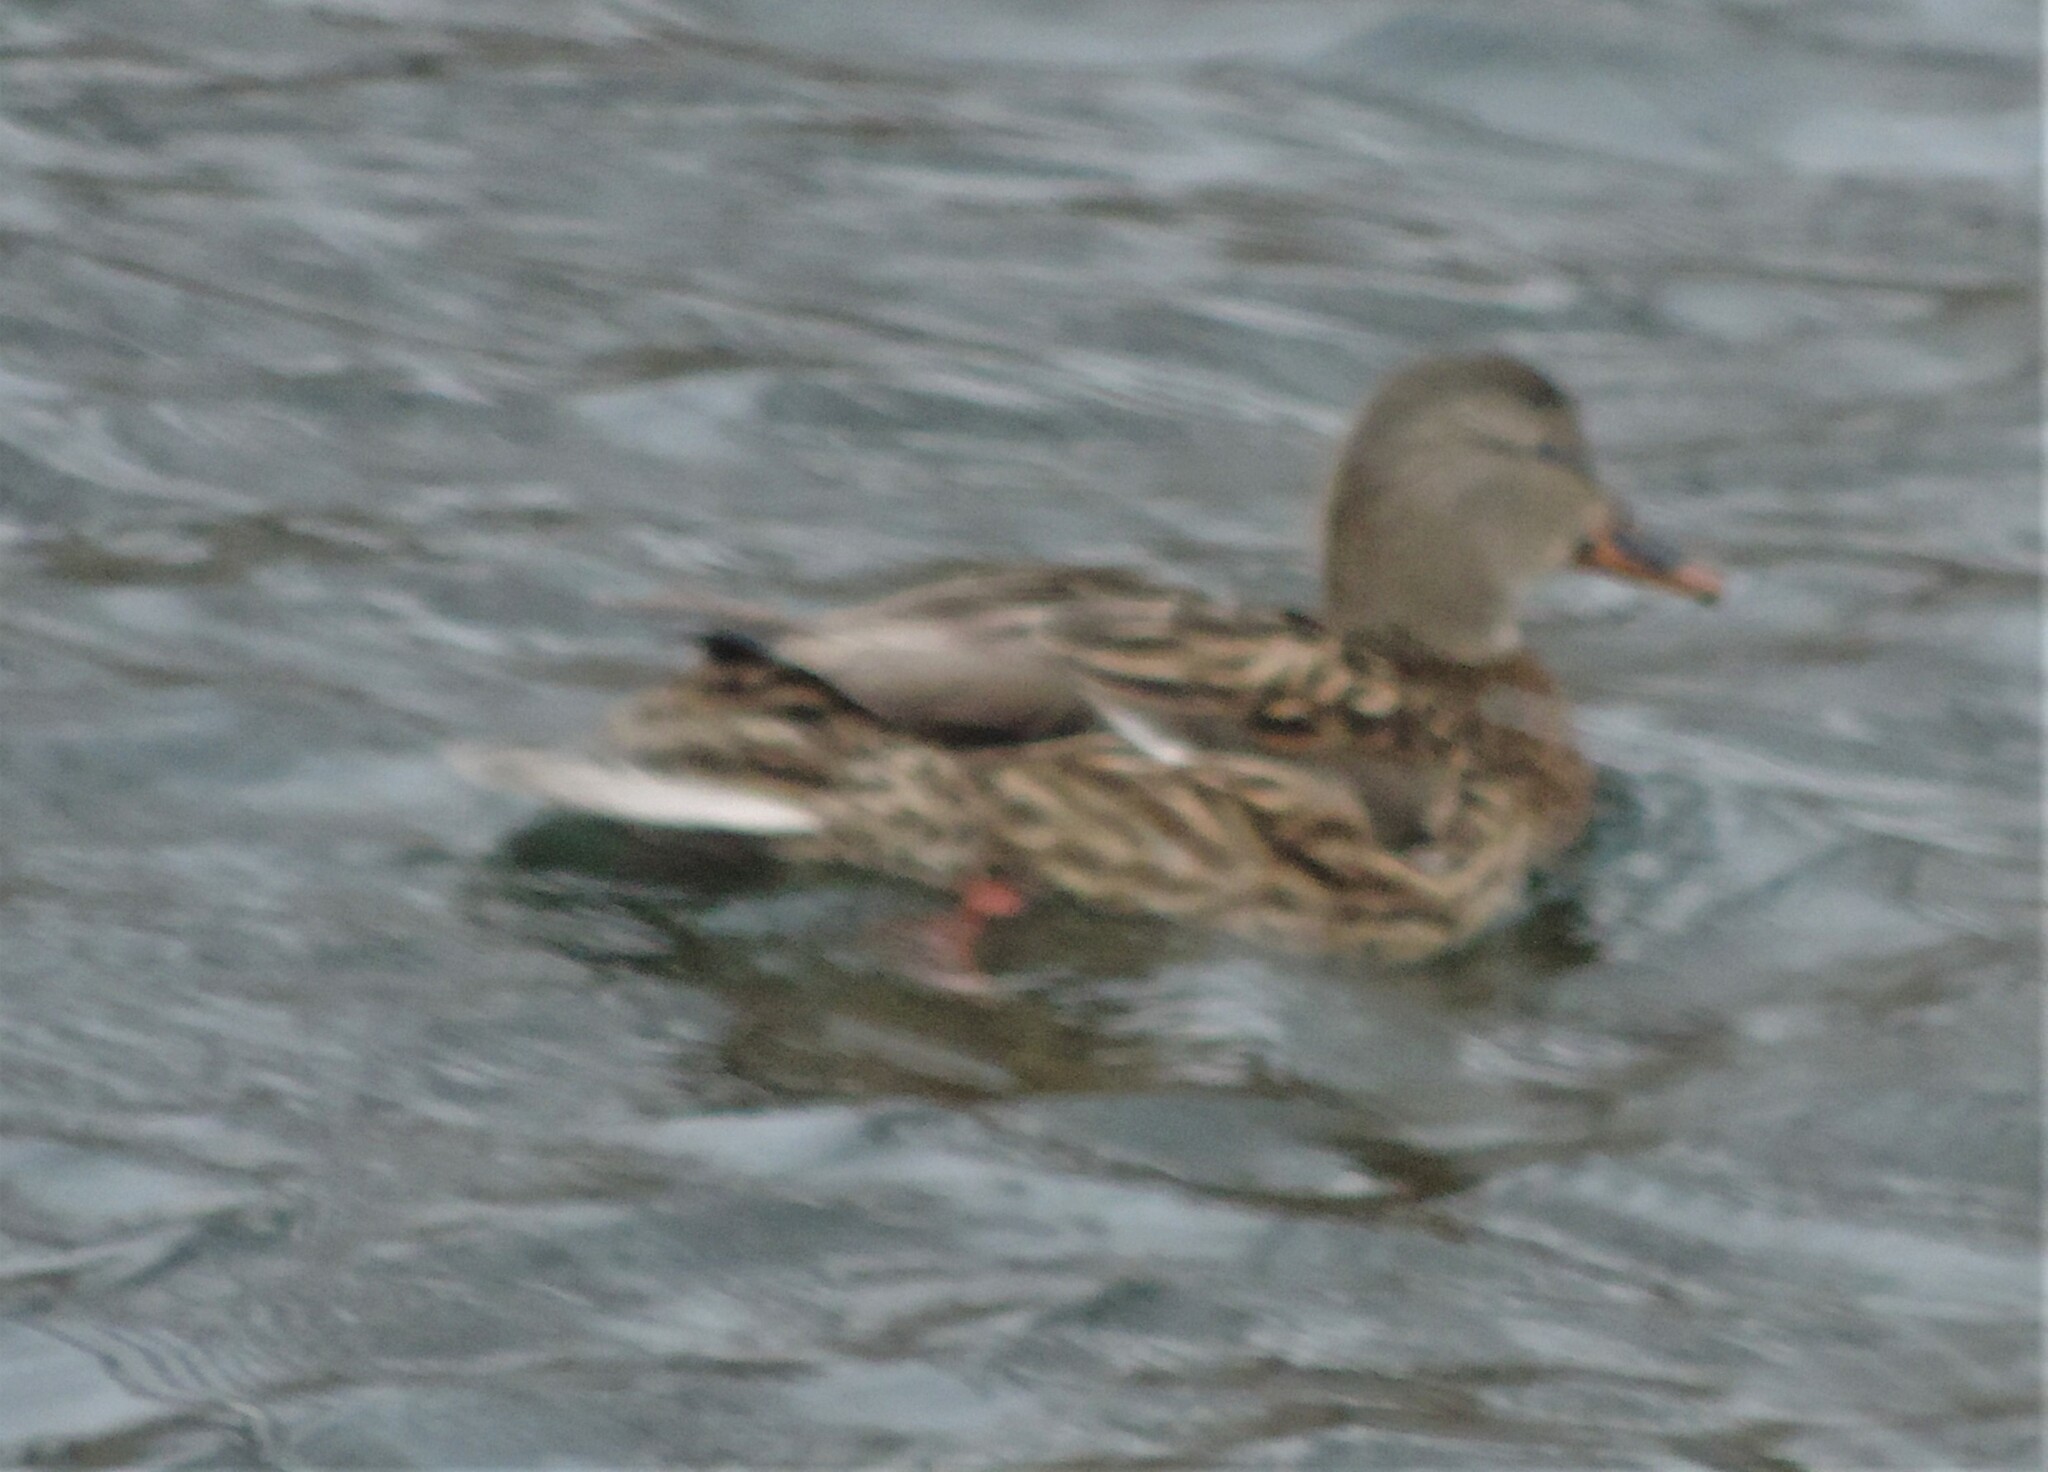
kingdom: Animalia
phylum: Chordata
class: Aves
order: Anseriformes
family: Anatidae
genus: Anas
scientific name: Anas platyrhynchos
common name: Mallard
